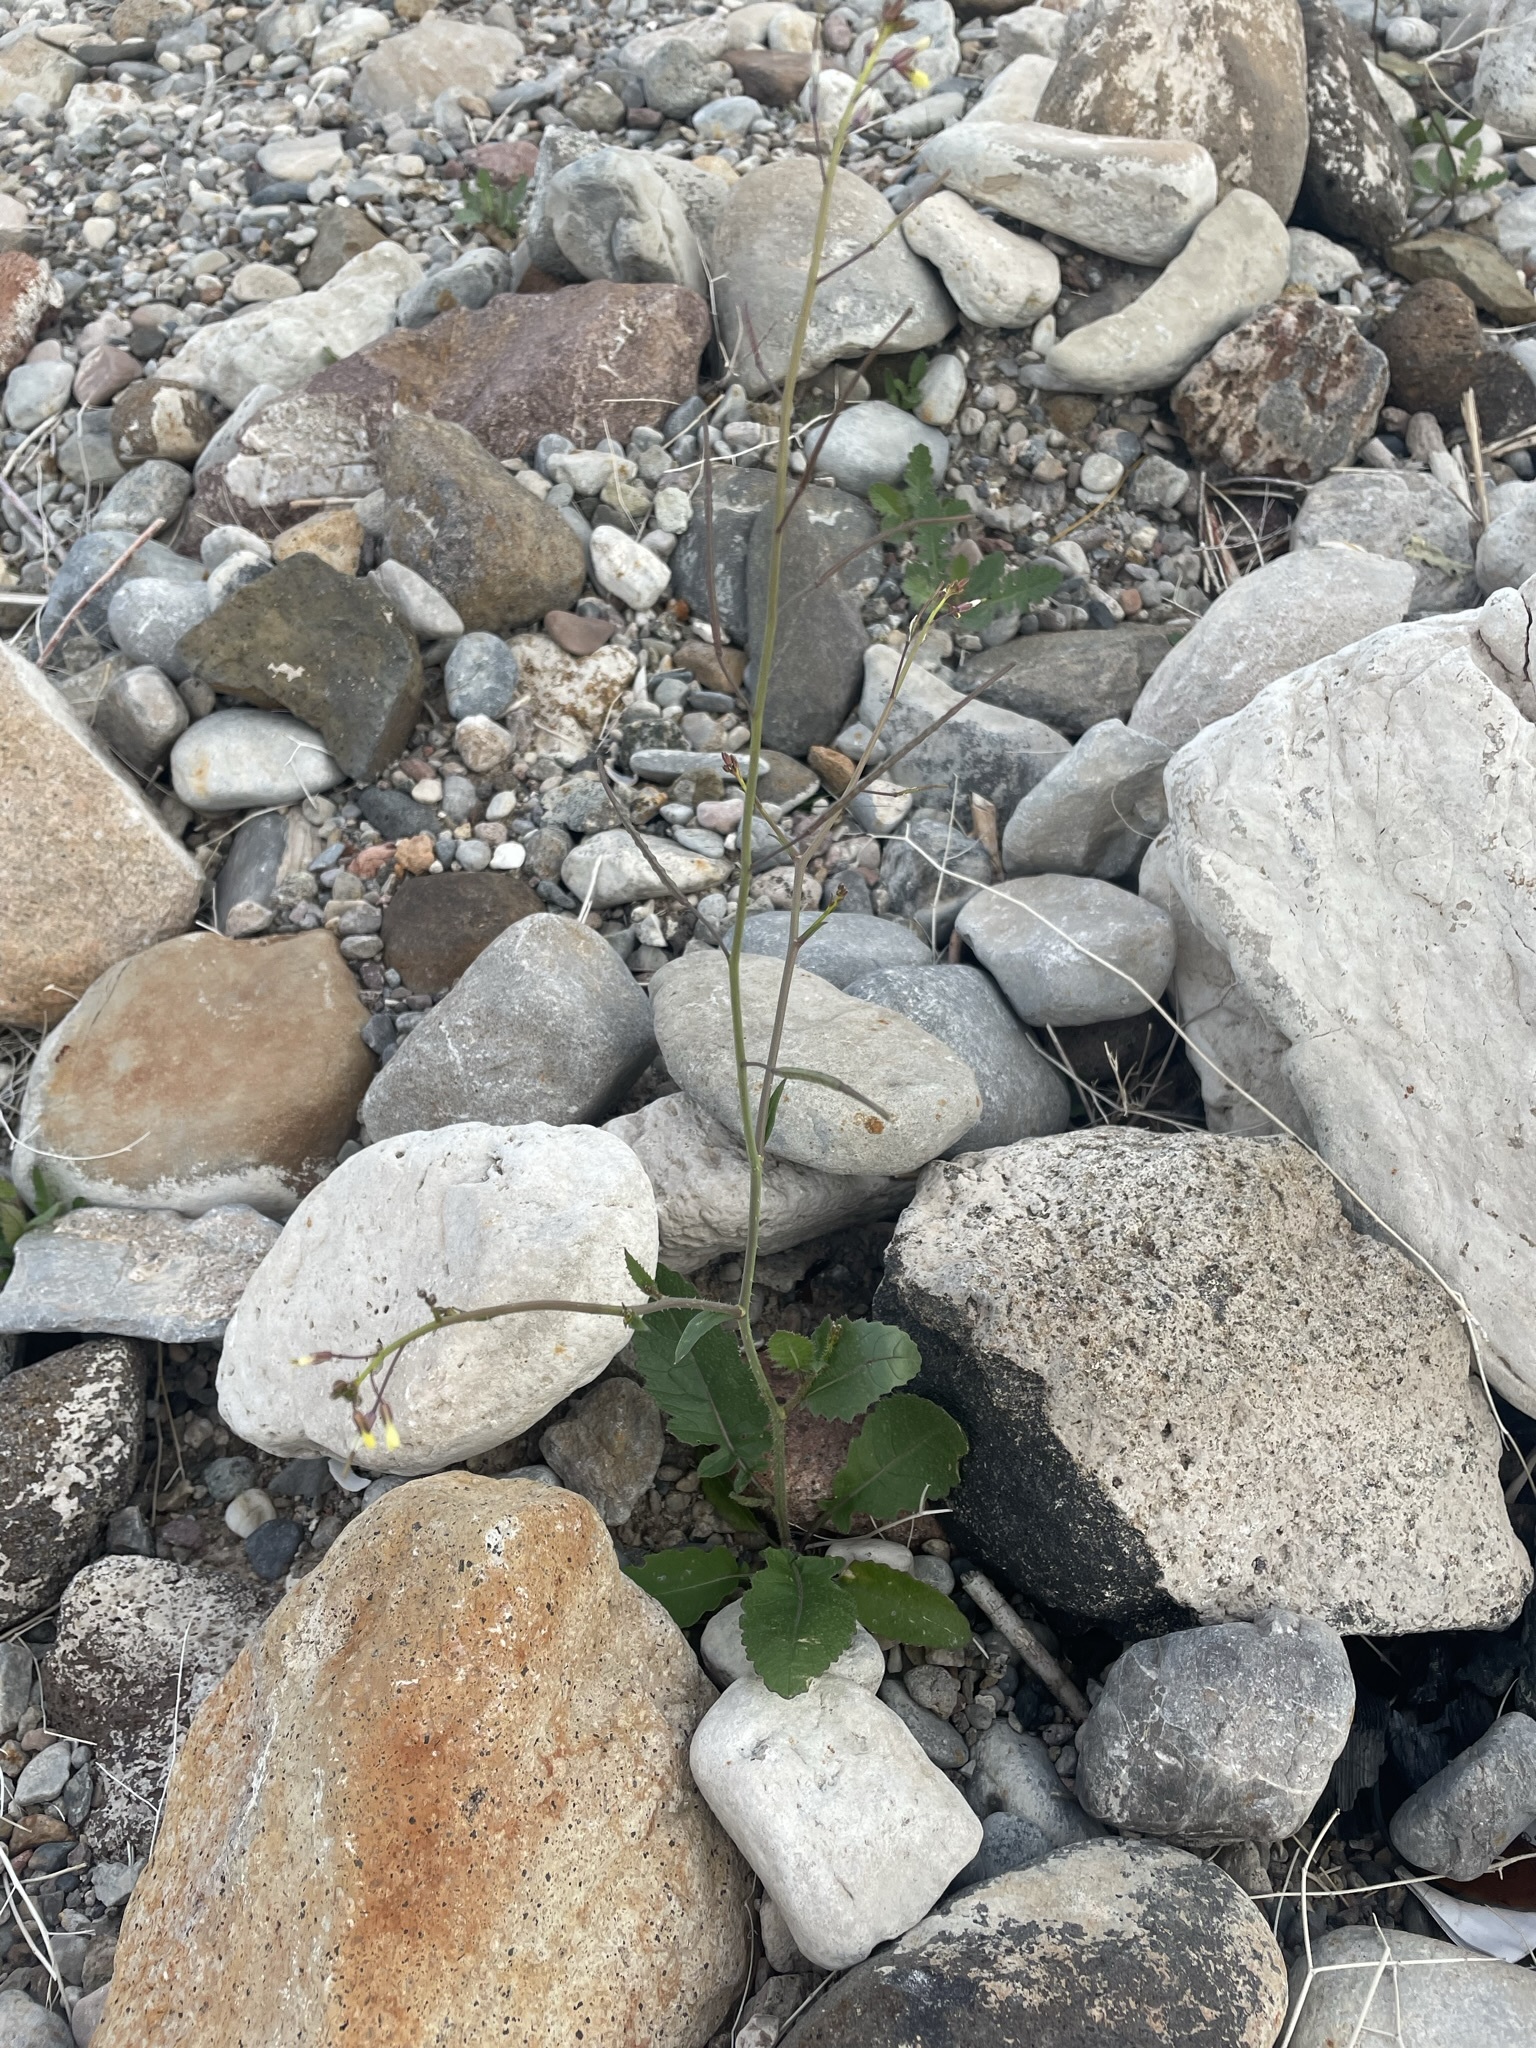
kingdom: Plantae
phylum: Tracheophyta
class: Magnoliopsida
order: Brassicales
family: Brassicaceae
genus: Brassica
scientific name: Brassica tournefortii
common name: Pale cabbage
